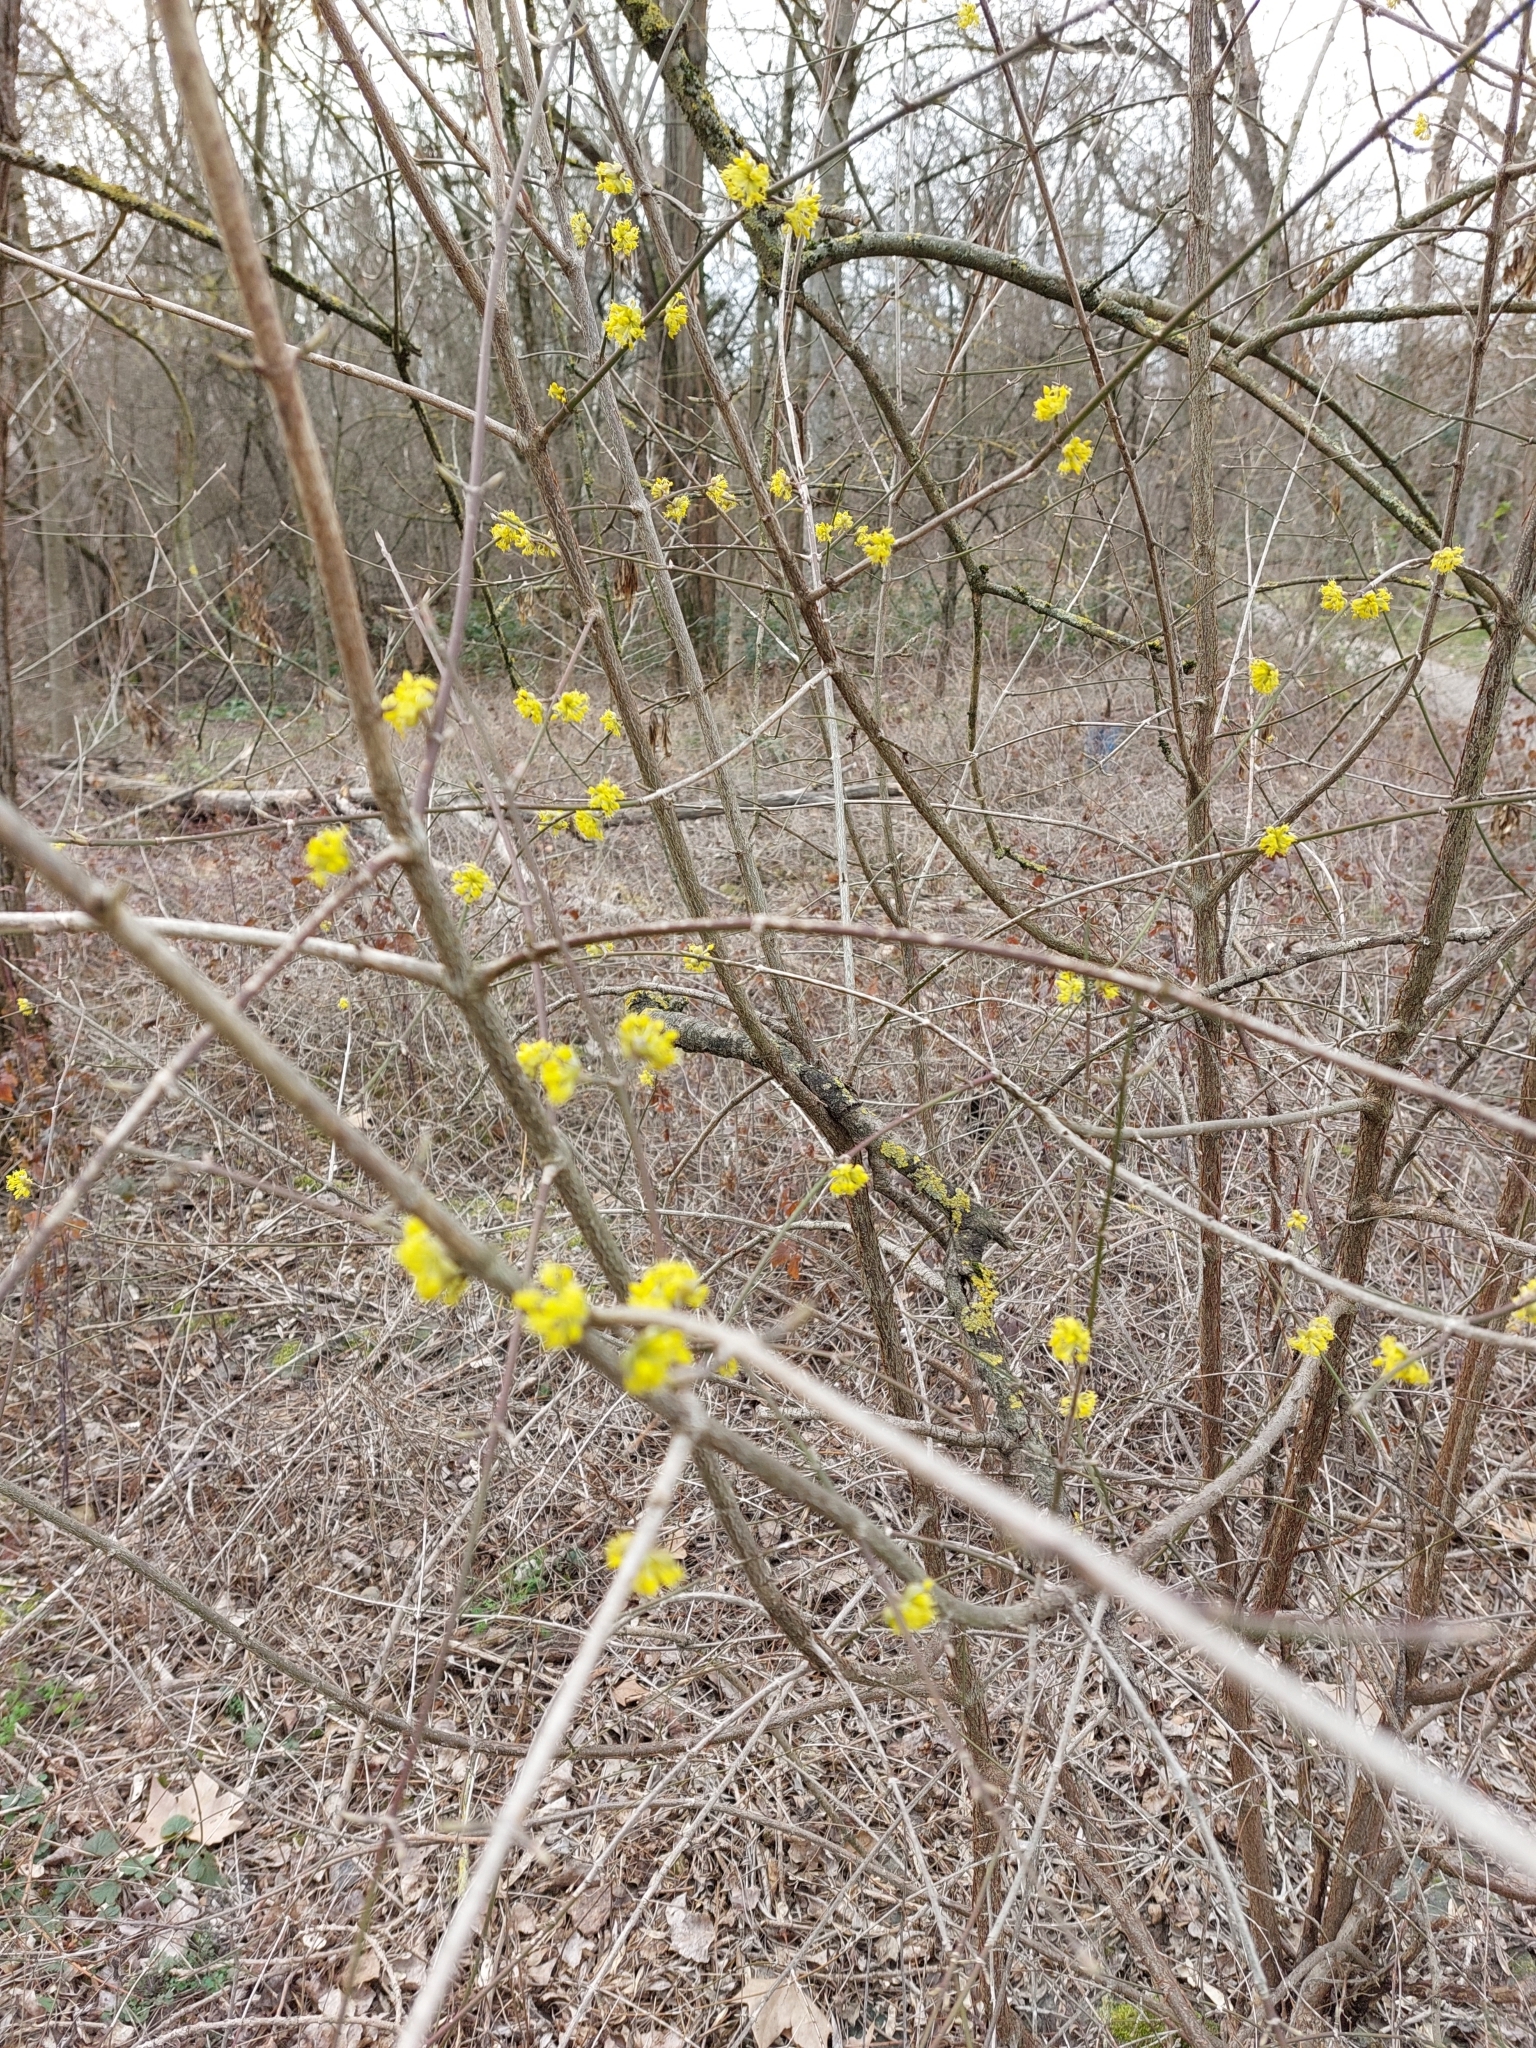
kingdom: Plantae
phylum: Tracheophyta
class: Magnoliopsida
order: Cornales
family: Cornaceae
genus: Cornus
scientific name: Cornus mas
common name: Cornelian-cherry
